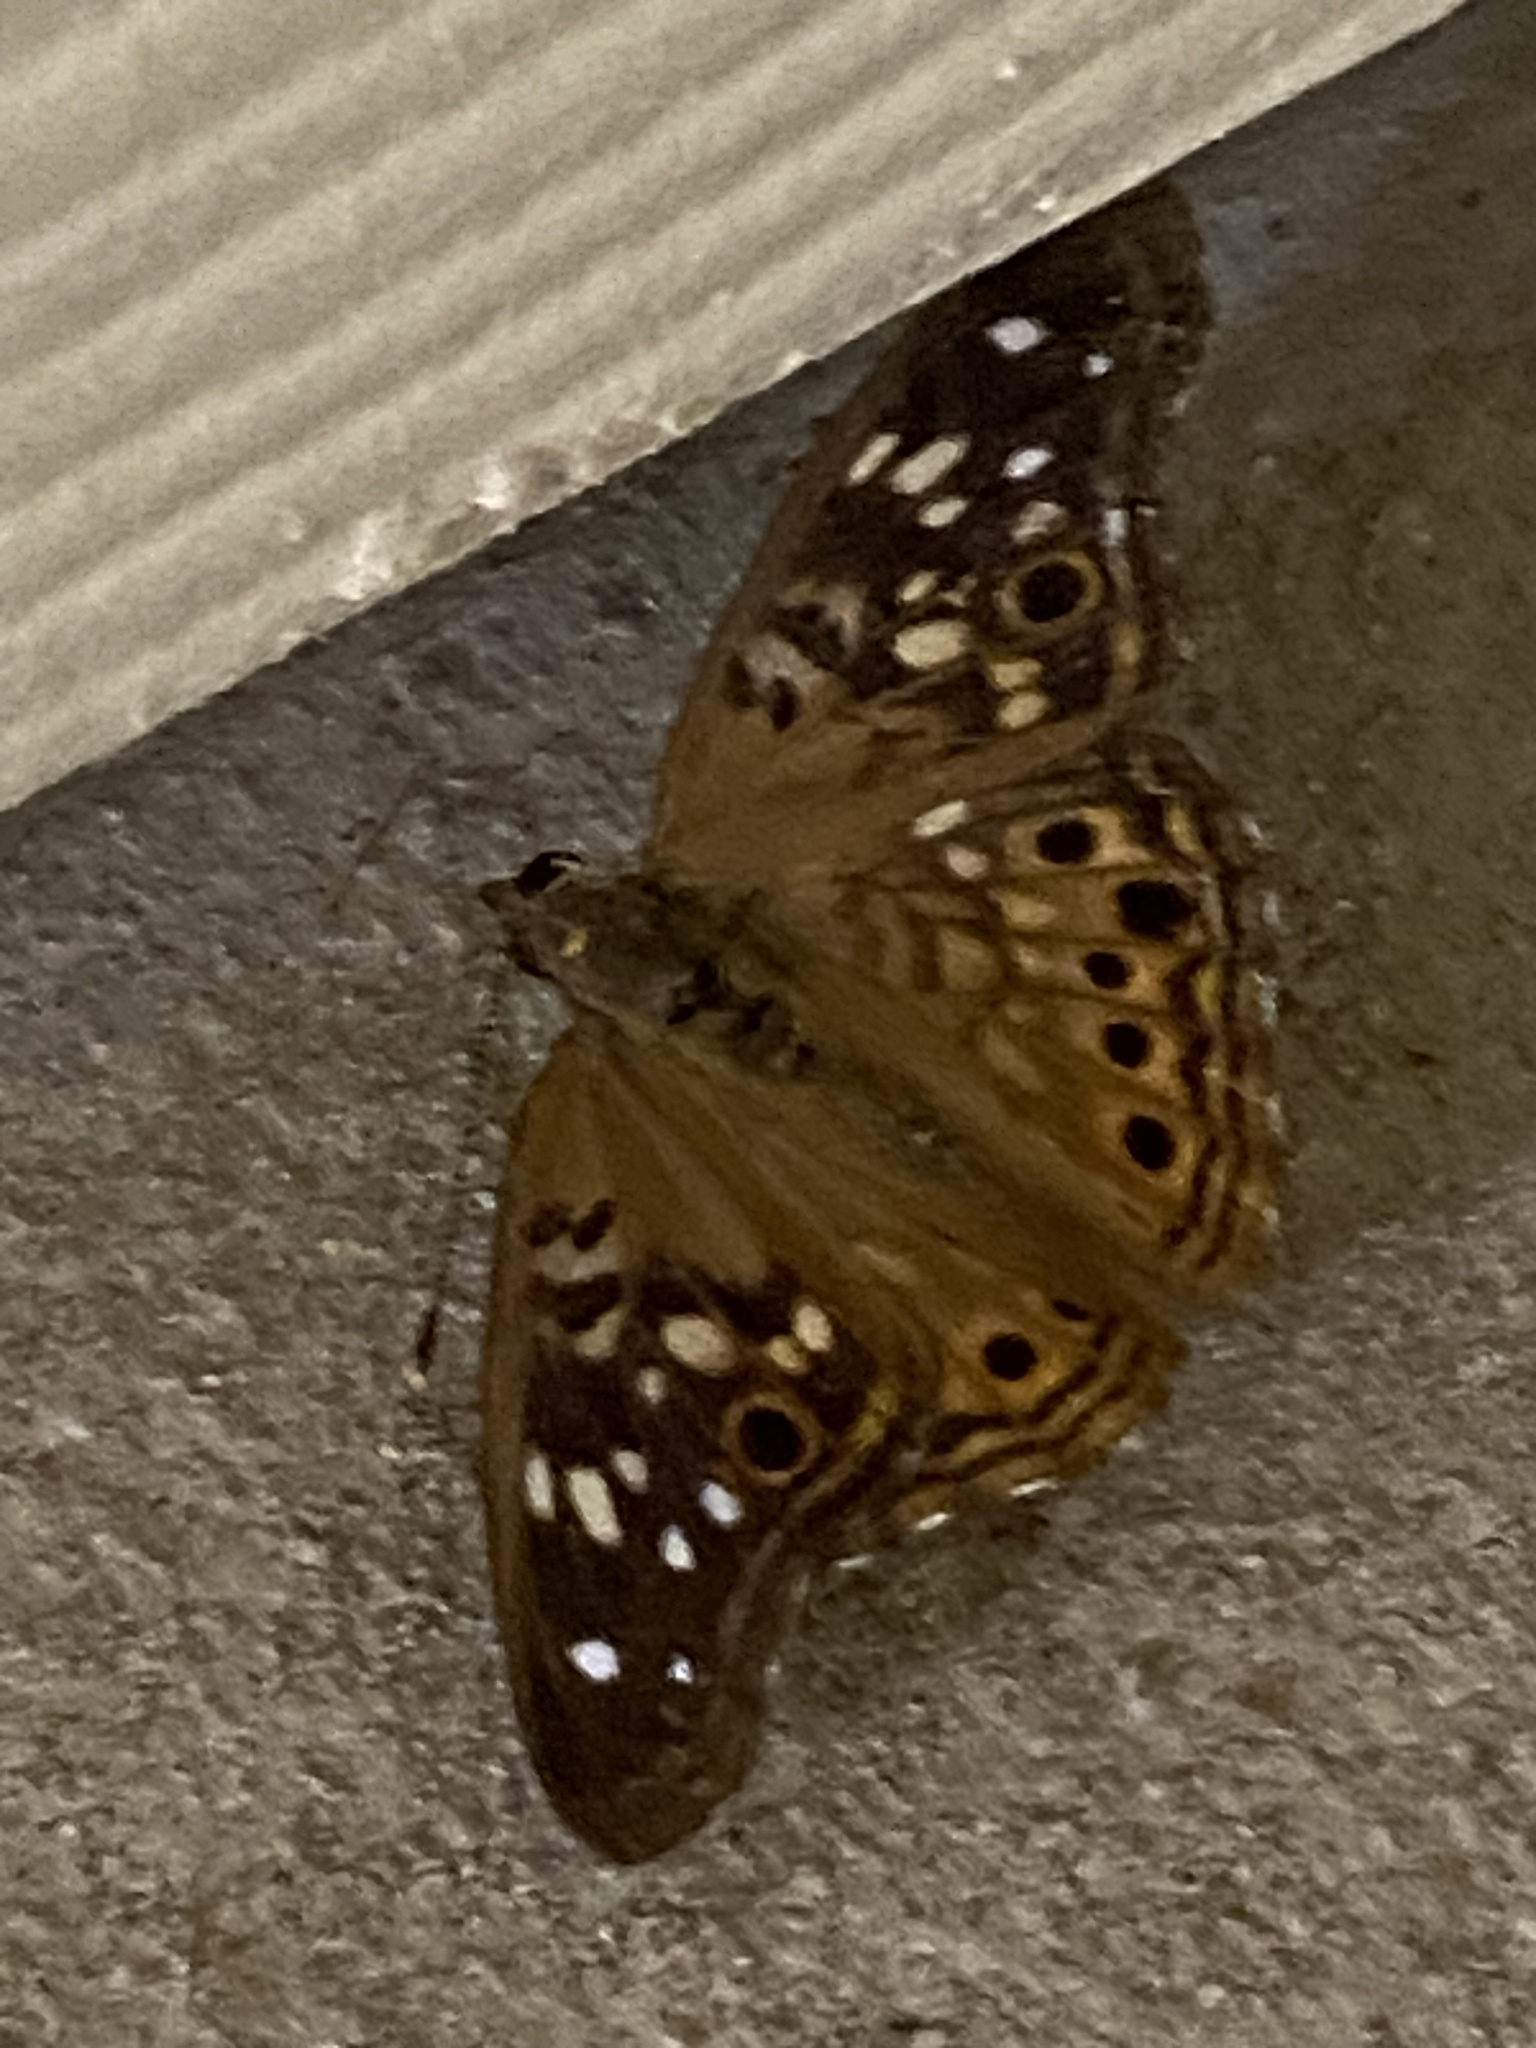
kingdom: Animalia
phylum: Arthropoda
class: Insecta
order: Lepidoptera
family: Nymphalidae
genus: Asterocampa
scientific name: Asterocampa celtis
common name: Hackberry emperor
